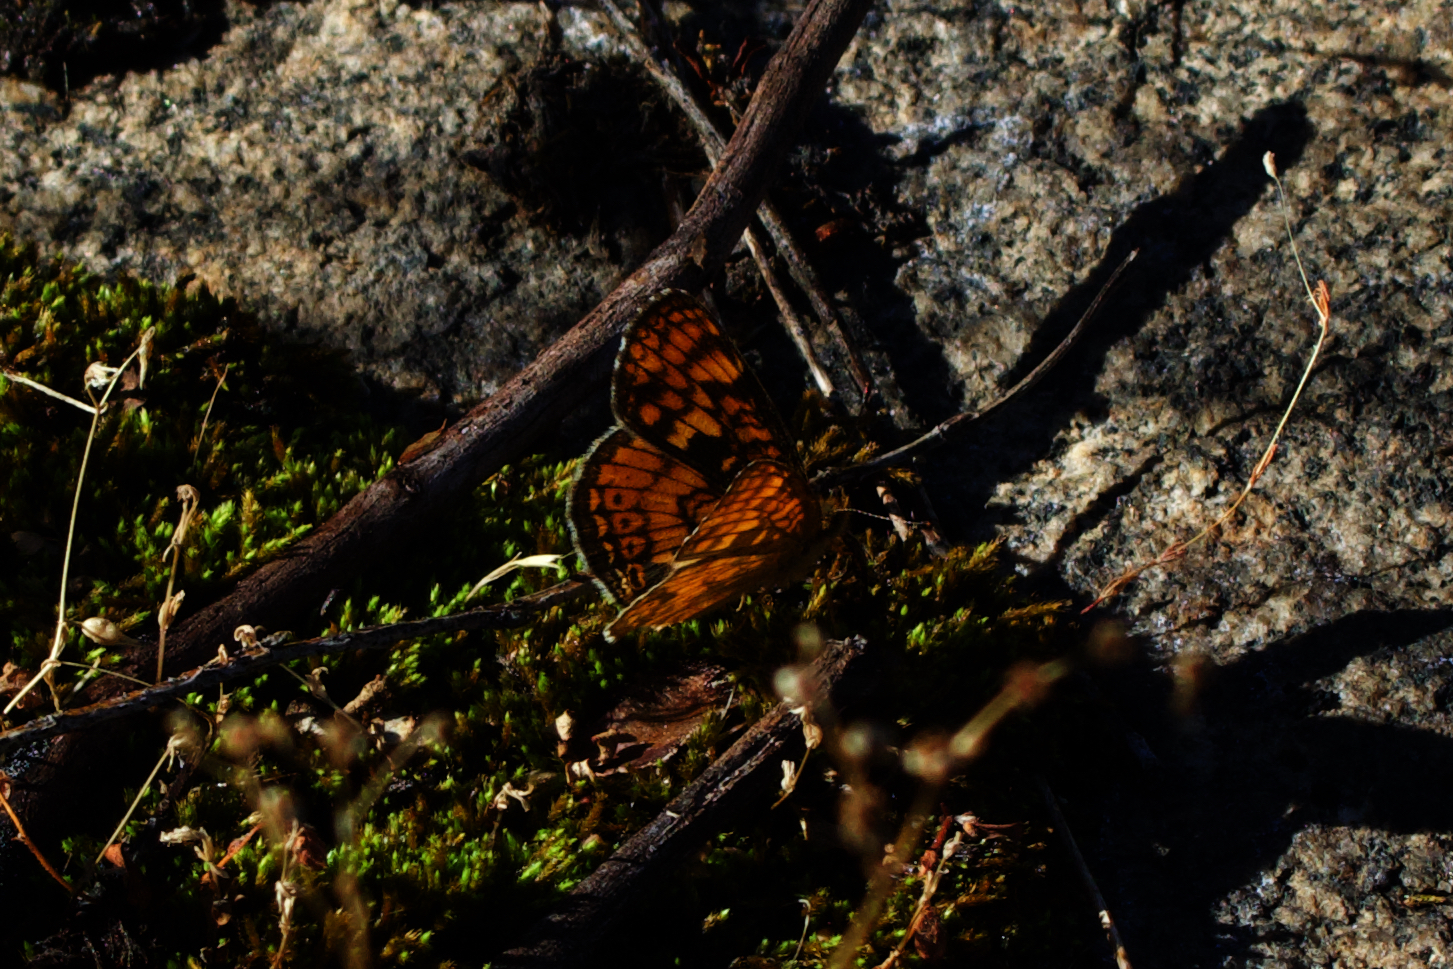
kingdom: Animalia
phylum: Arthropoda
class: Insecta
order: Lepidoptera
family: Nymphalidae
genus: Phyciodes
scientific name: Phyciodes tharos
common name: Pearl crescent
